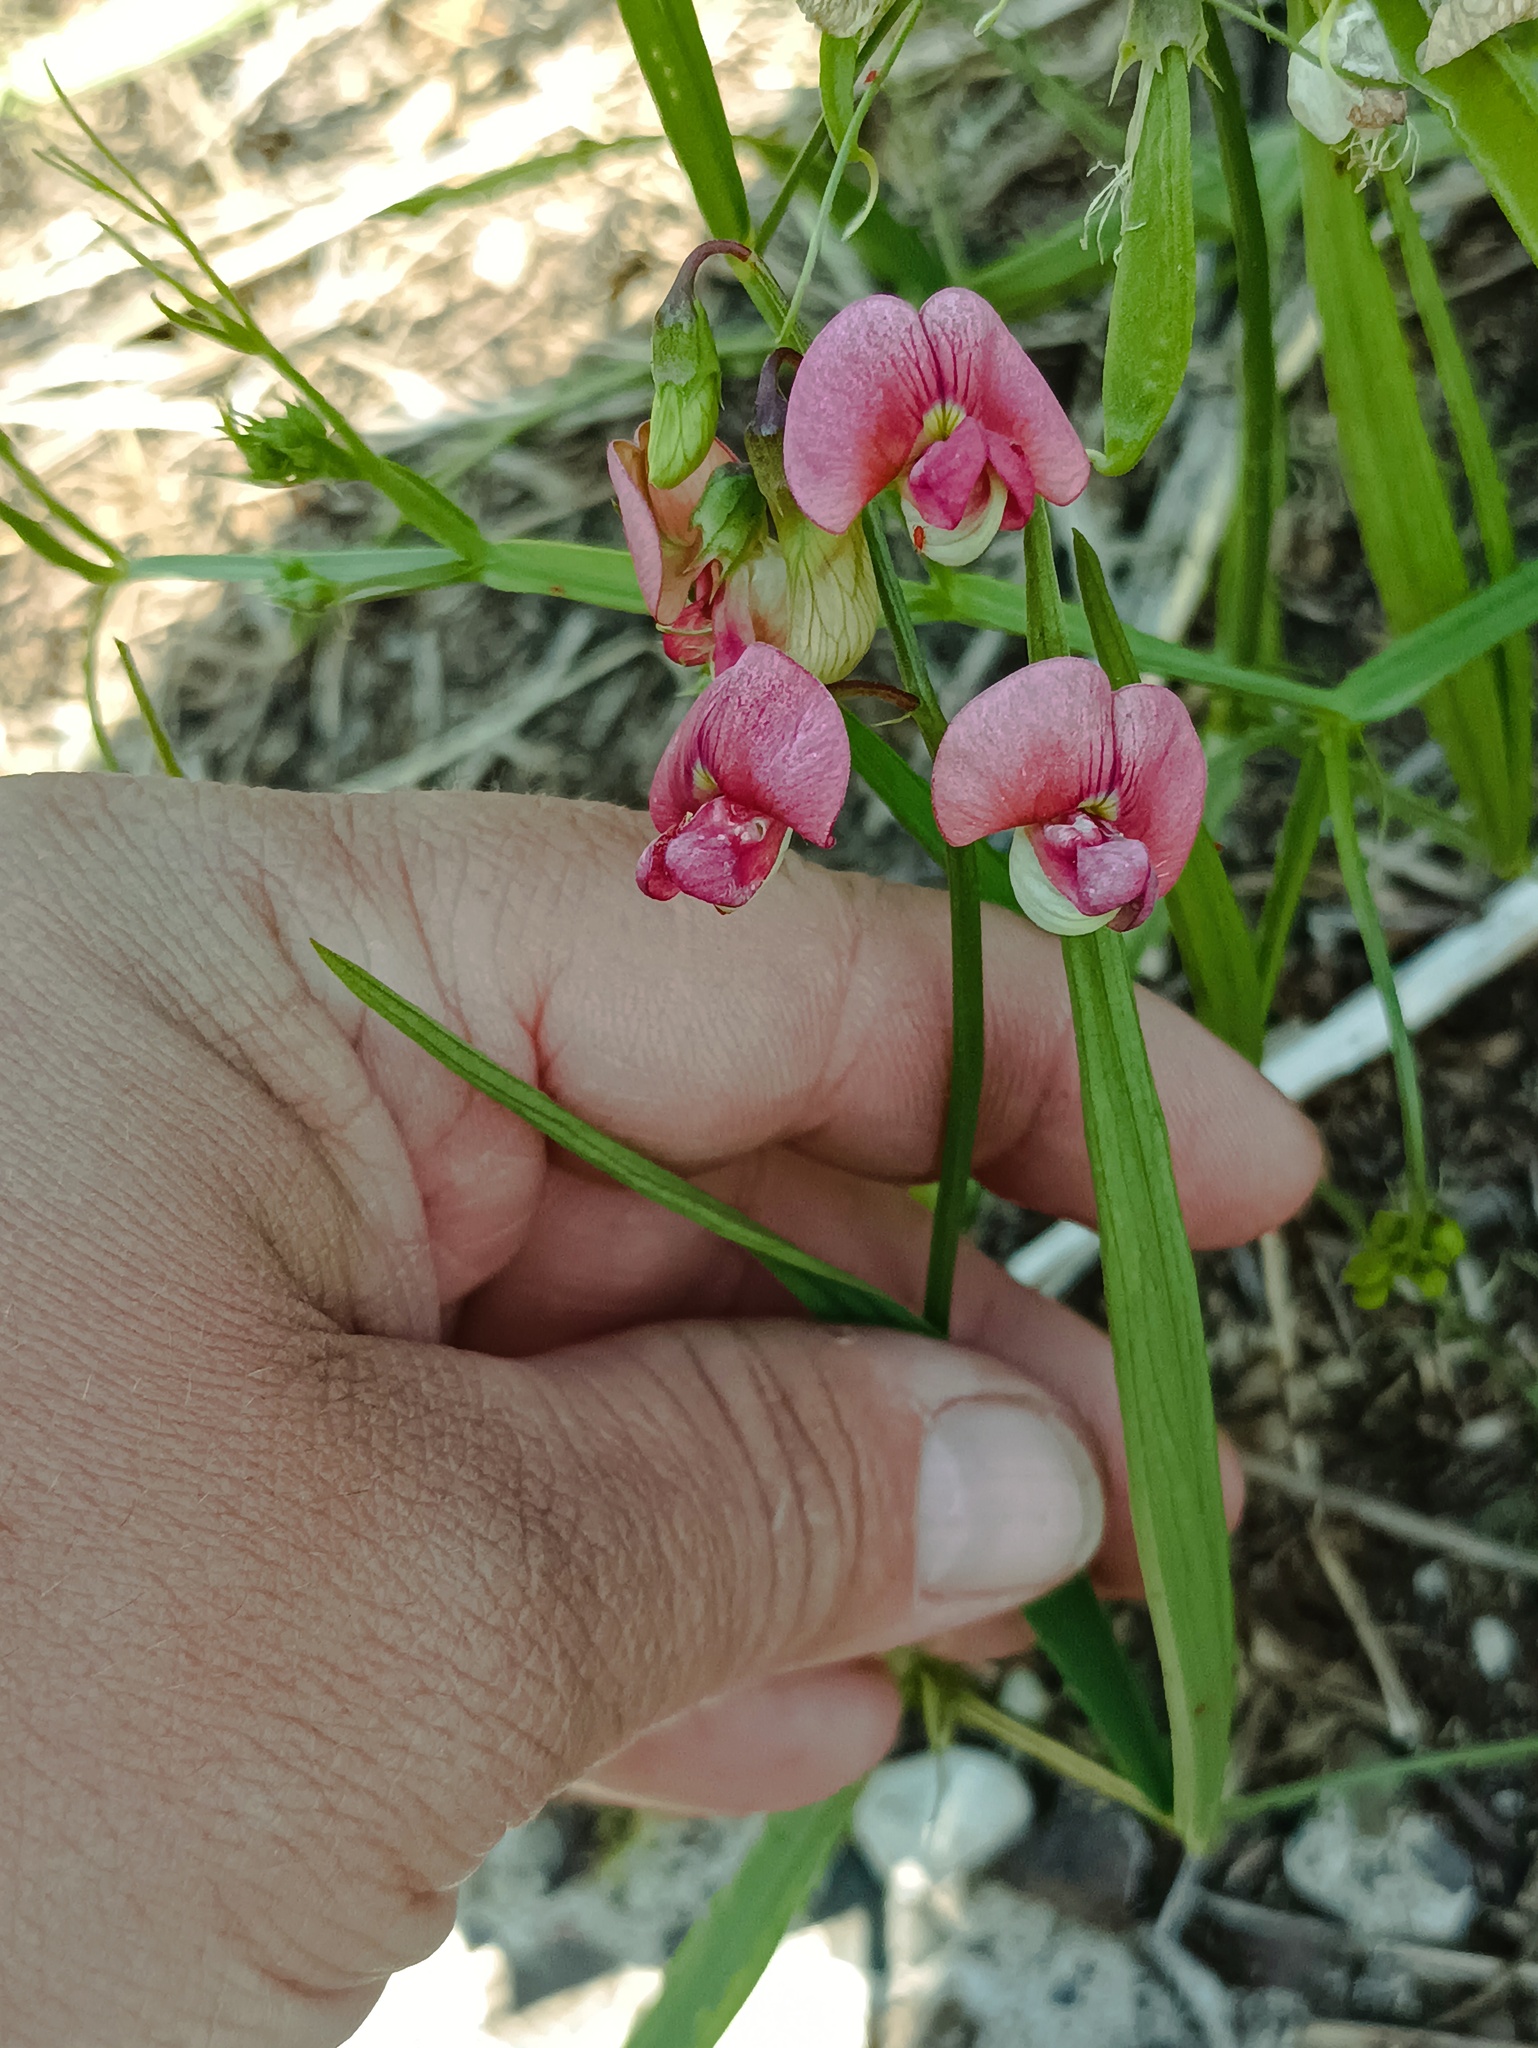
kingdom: Plantae
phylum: Tracheophyta
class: Magnoliopsida
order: Fabales
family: Fabaceae
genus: Lathyrus
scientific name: Lathyrus sylvestris
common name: Flat pea
